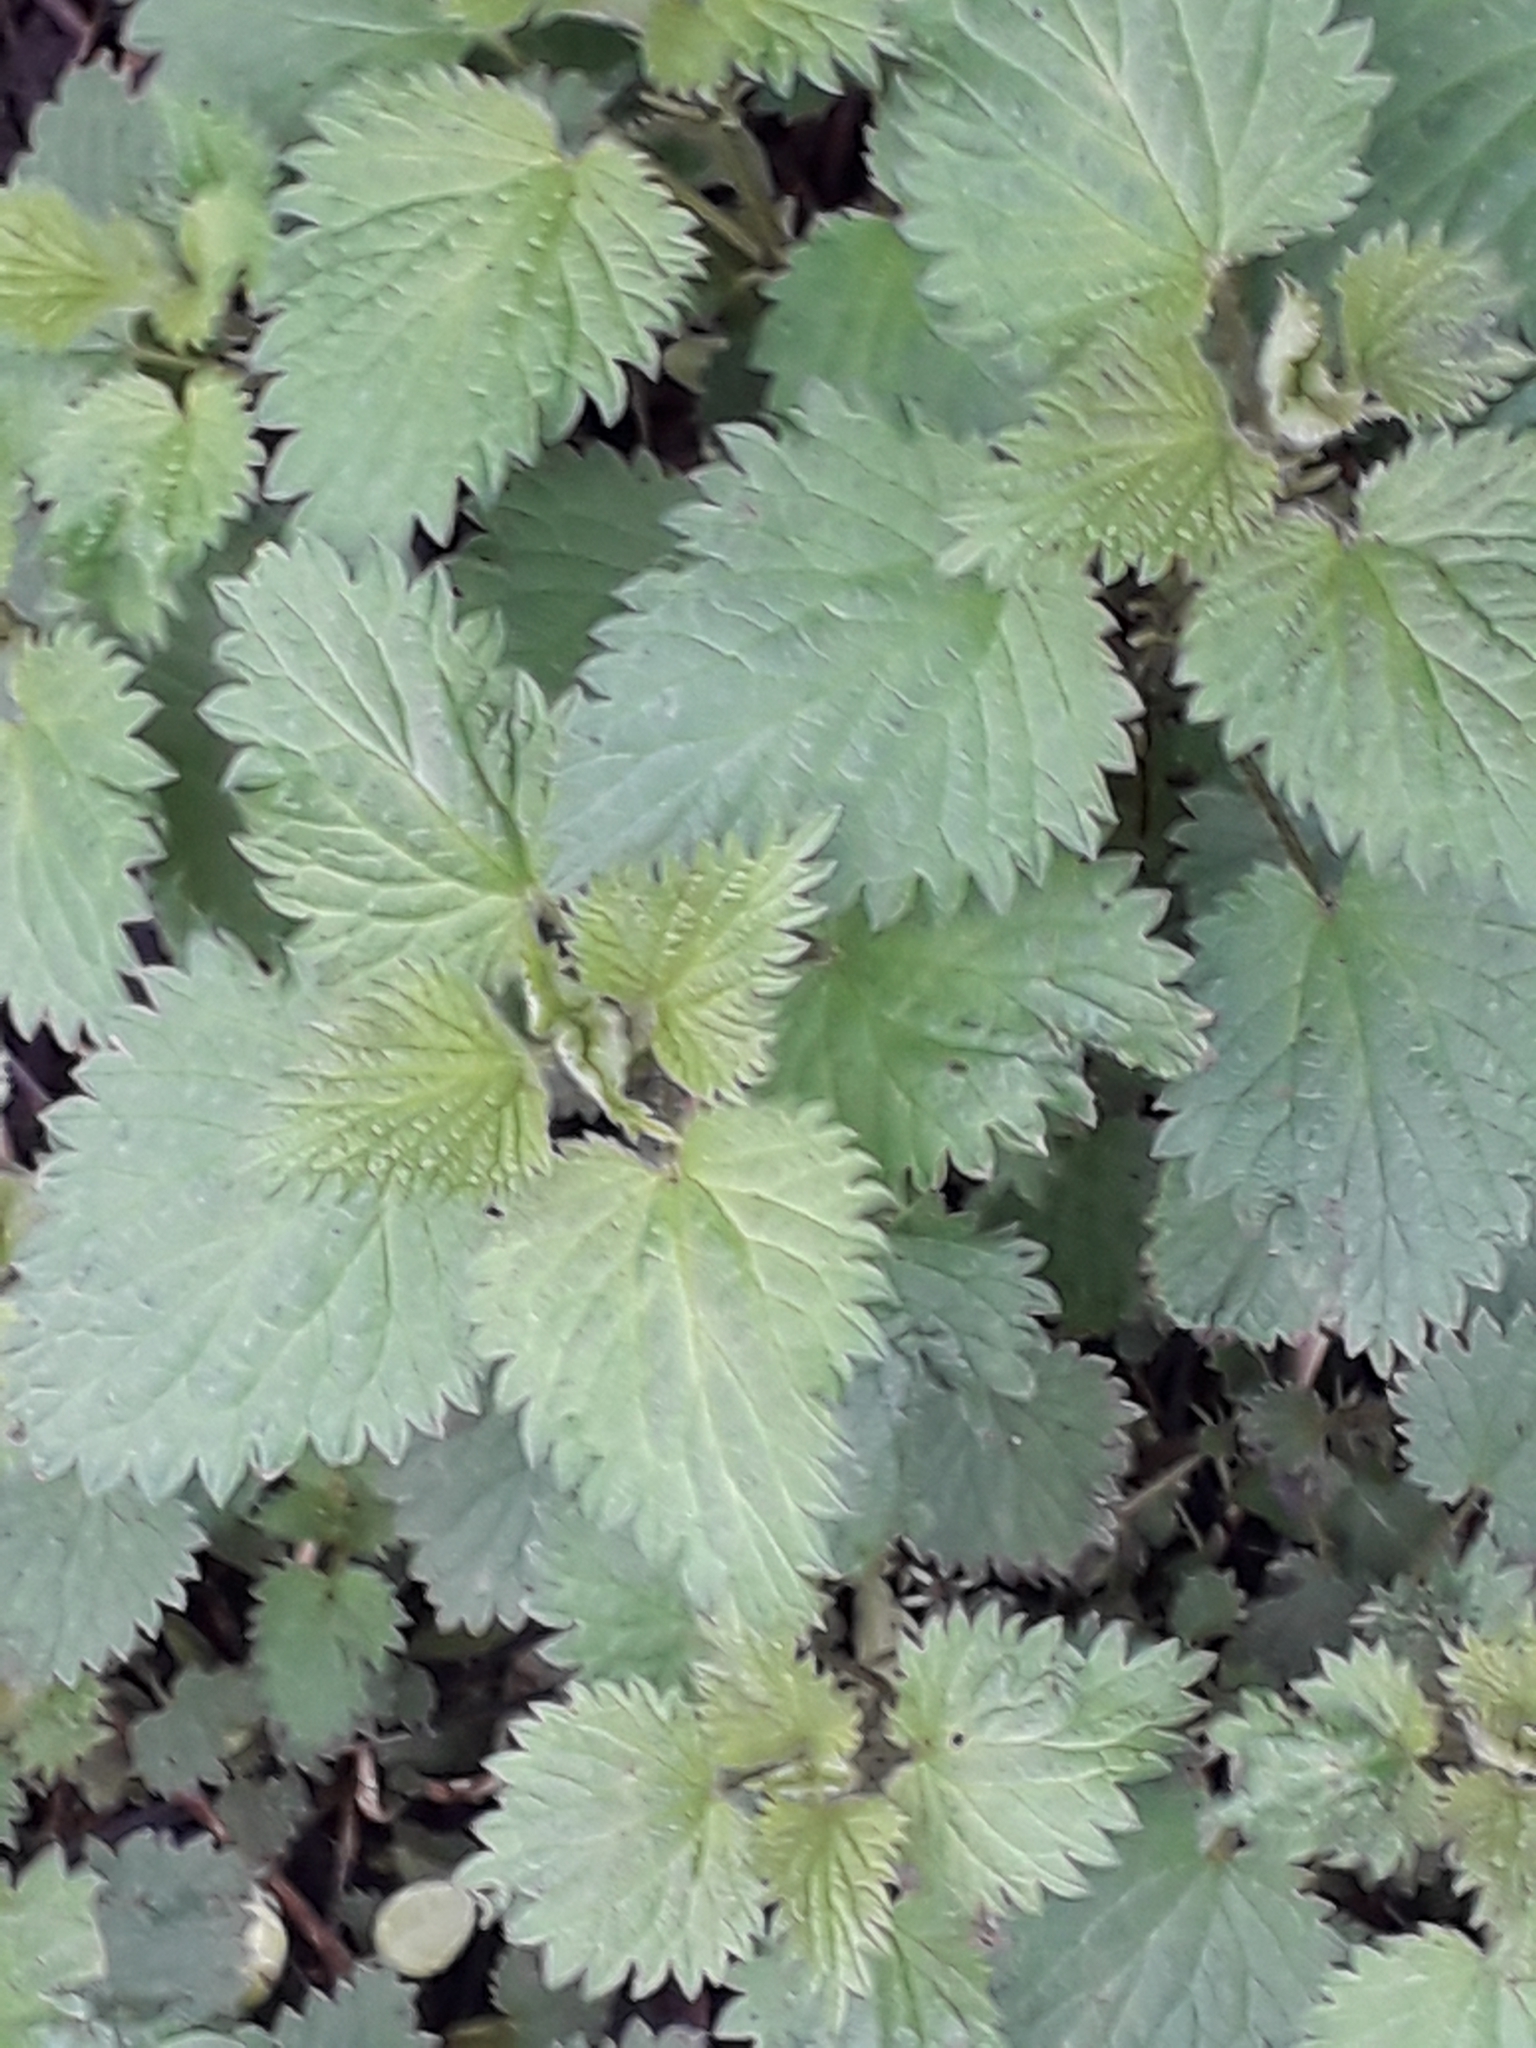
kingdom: Plantae
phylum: Tracheophyta
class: Magnoliopsida
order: Rosales
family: Urticaceae
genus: Urtica
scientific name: Urtica dioica
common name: Common nettle
